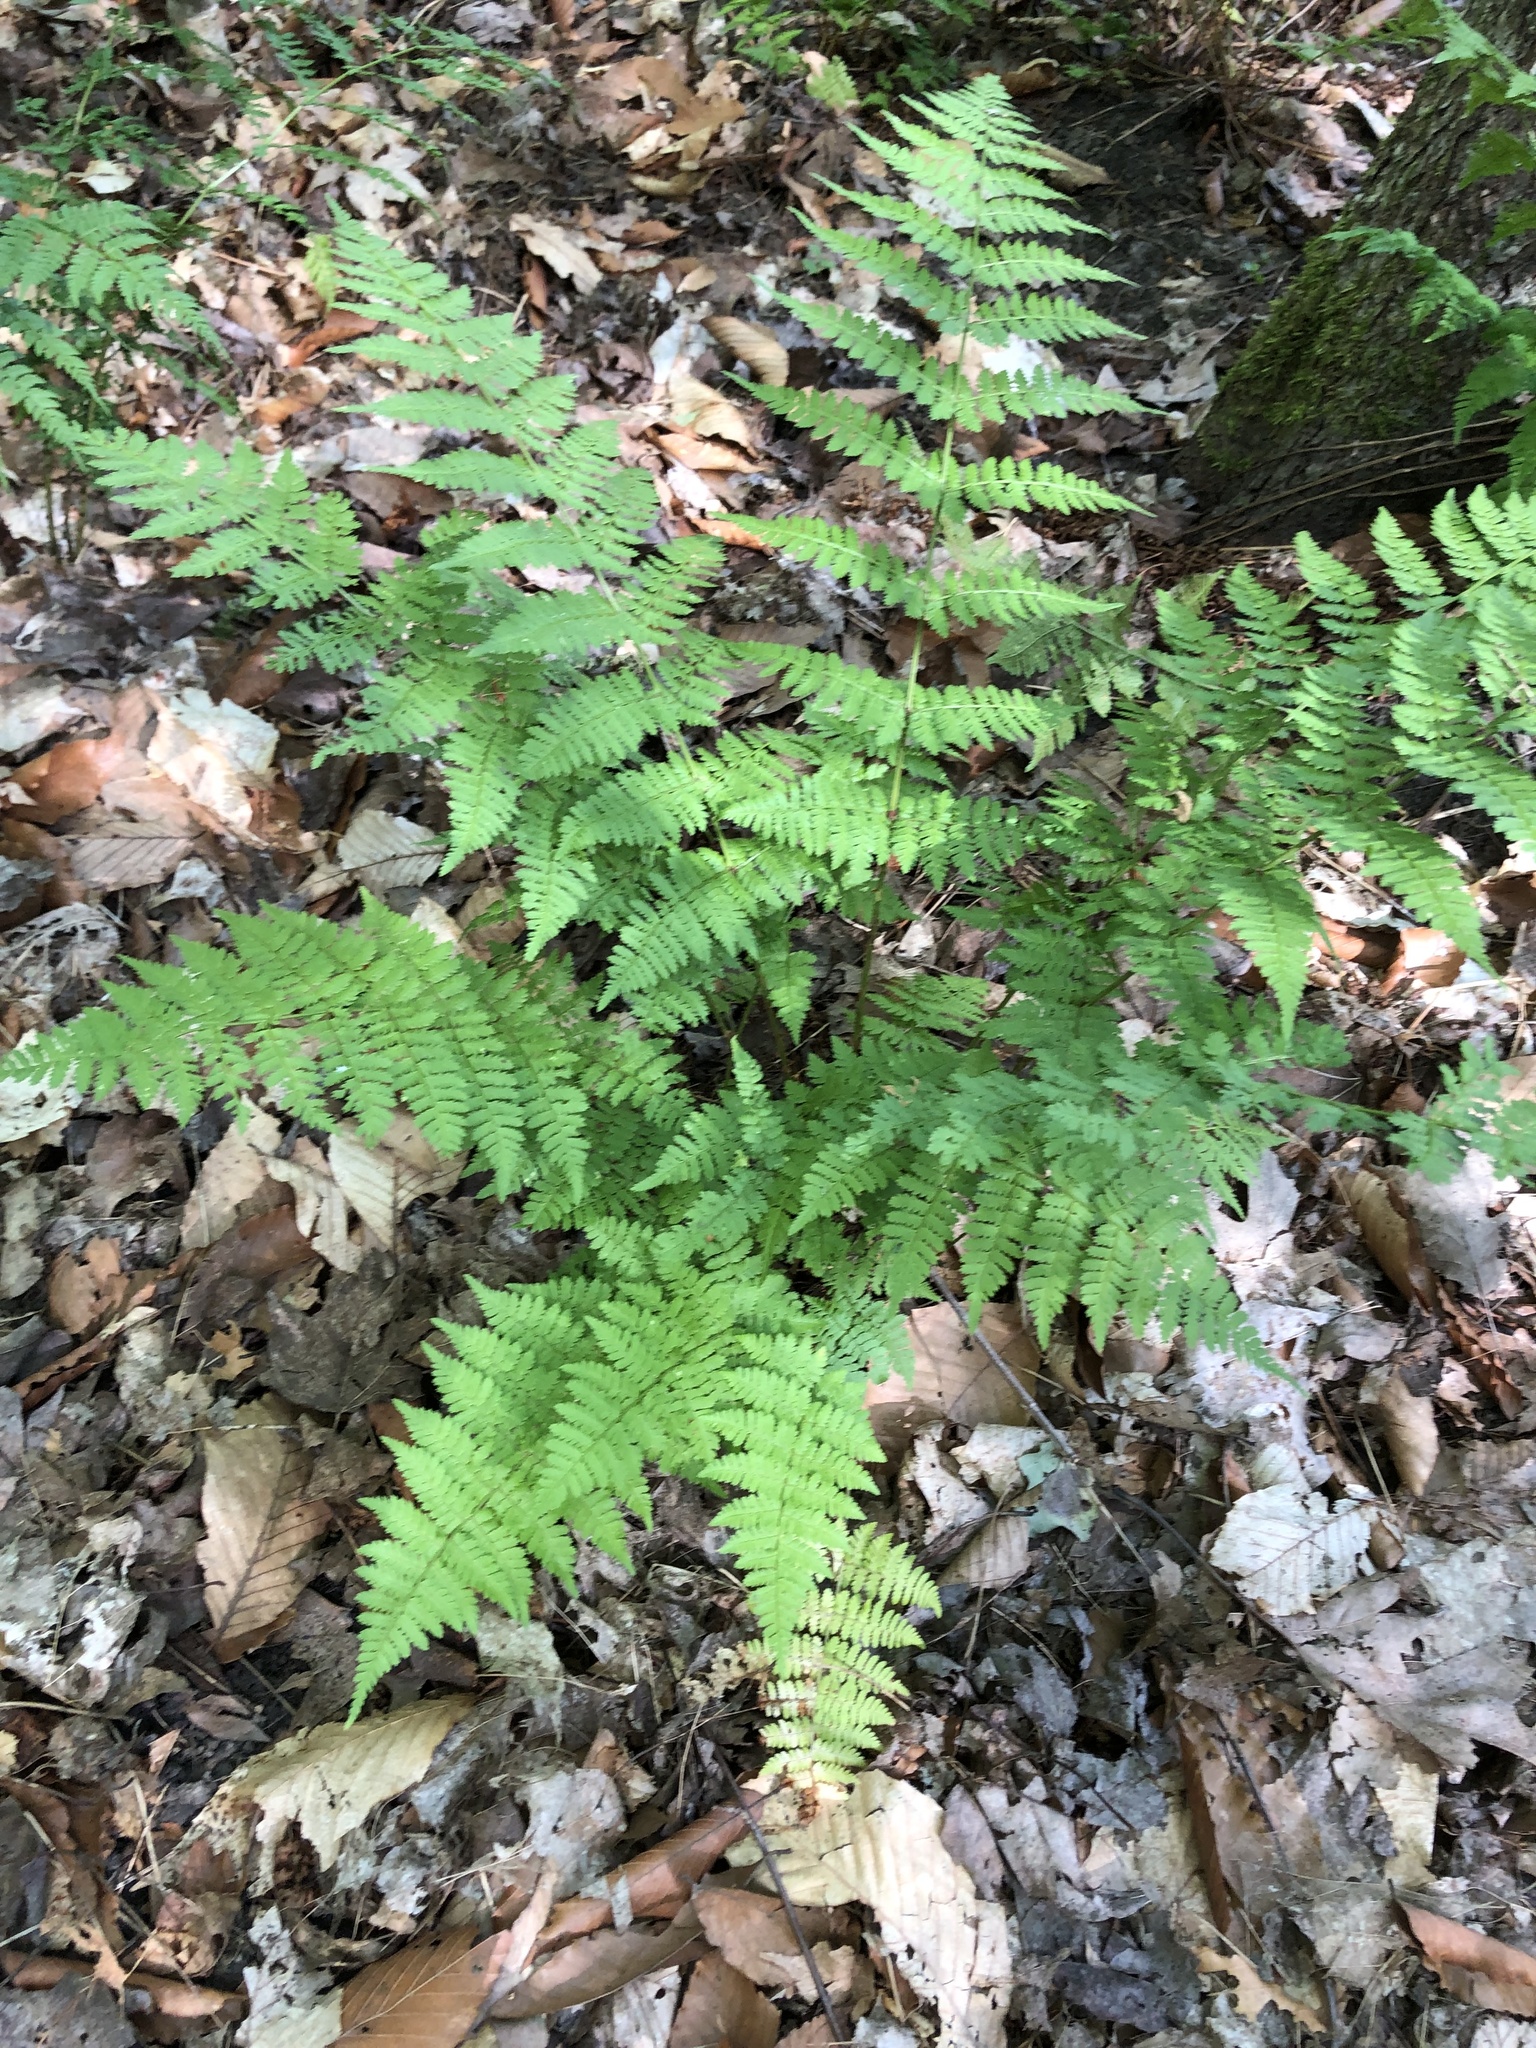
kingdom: Plantae
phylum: Tracheophyta
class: Polypodiopsida
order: Polypodiales
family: Dryopteridaceae
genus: Dryopteris
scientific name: Dryopteris intermedia
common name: Evergreen wood fern
